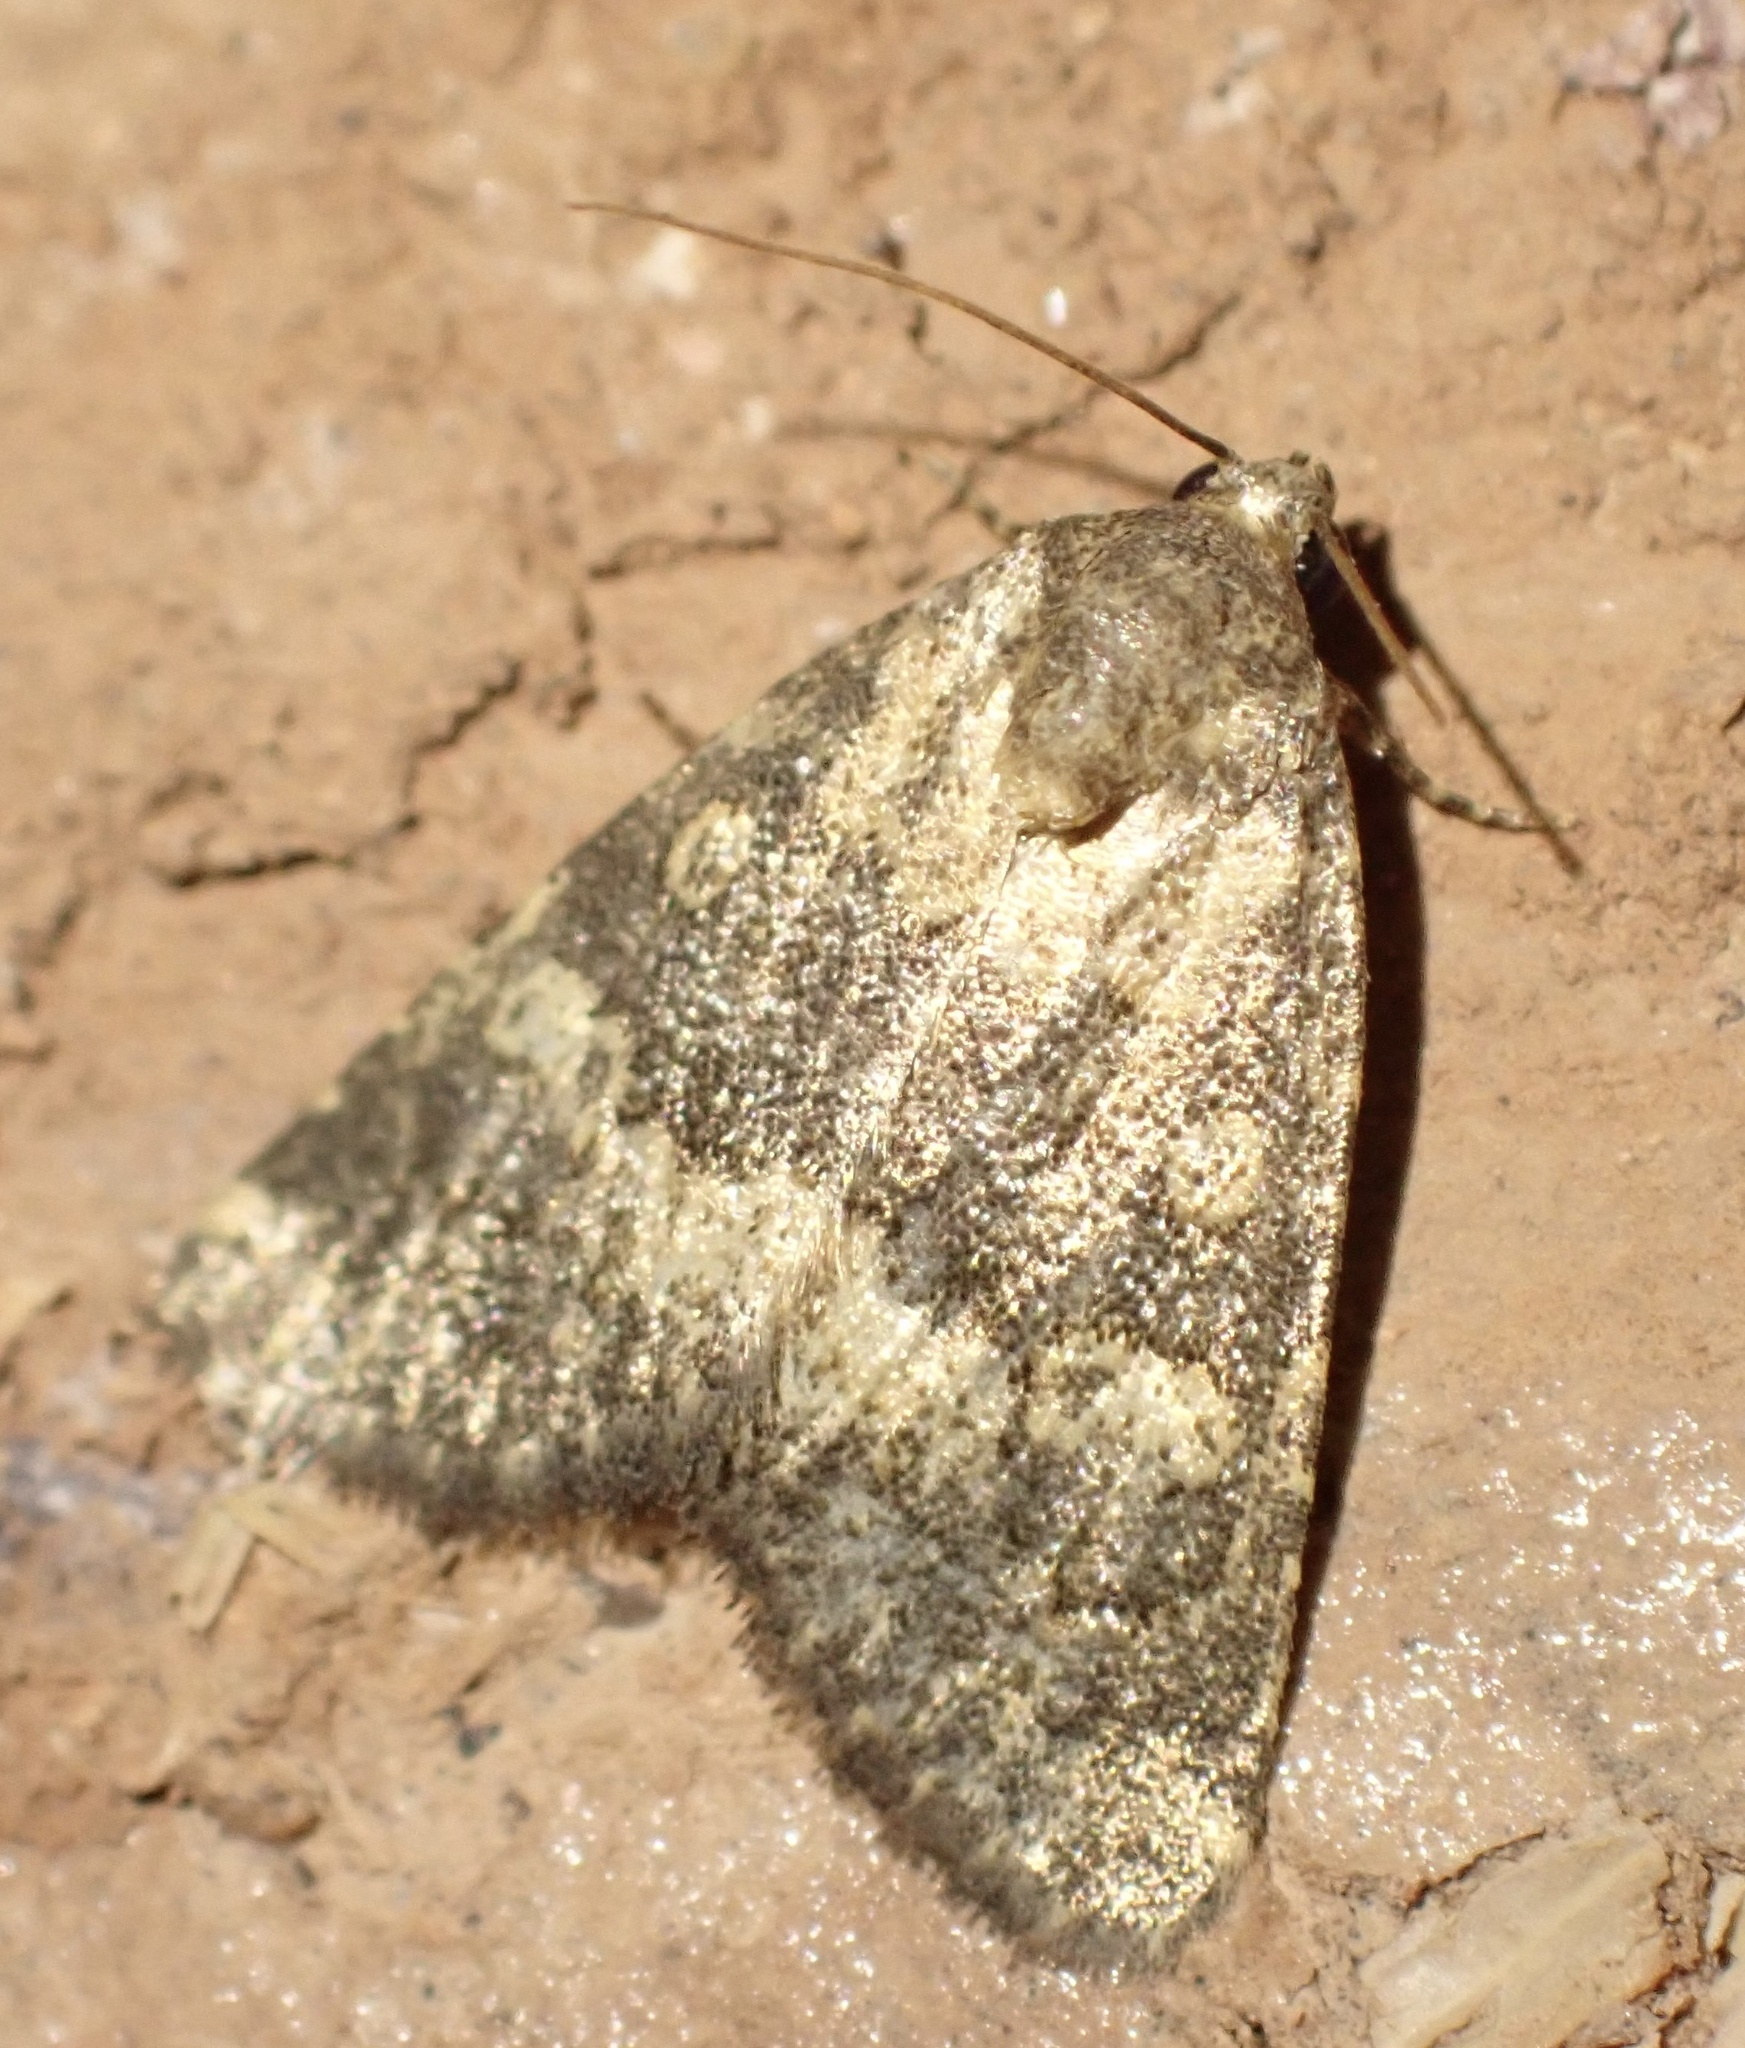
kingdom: Animalia
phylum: Arthropoda
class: Insecta
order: Lepidoptera
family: Noctuidae
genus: Duhemia
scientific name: Duhemia variegata
